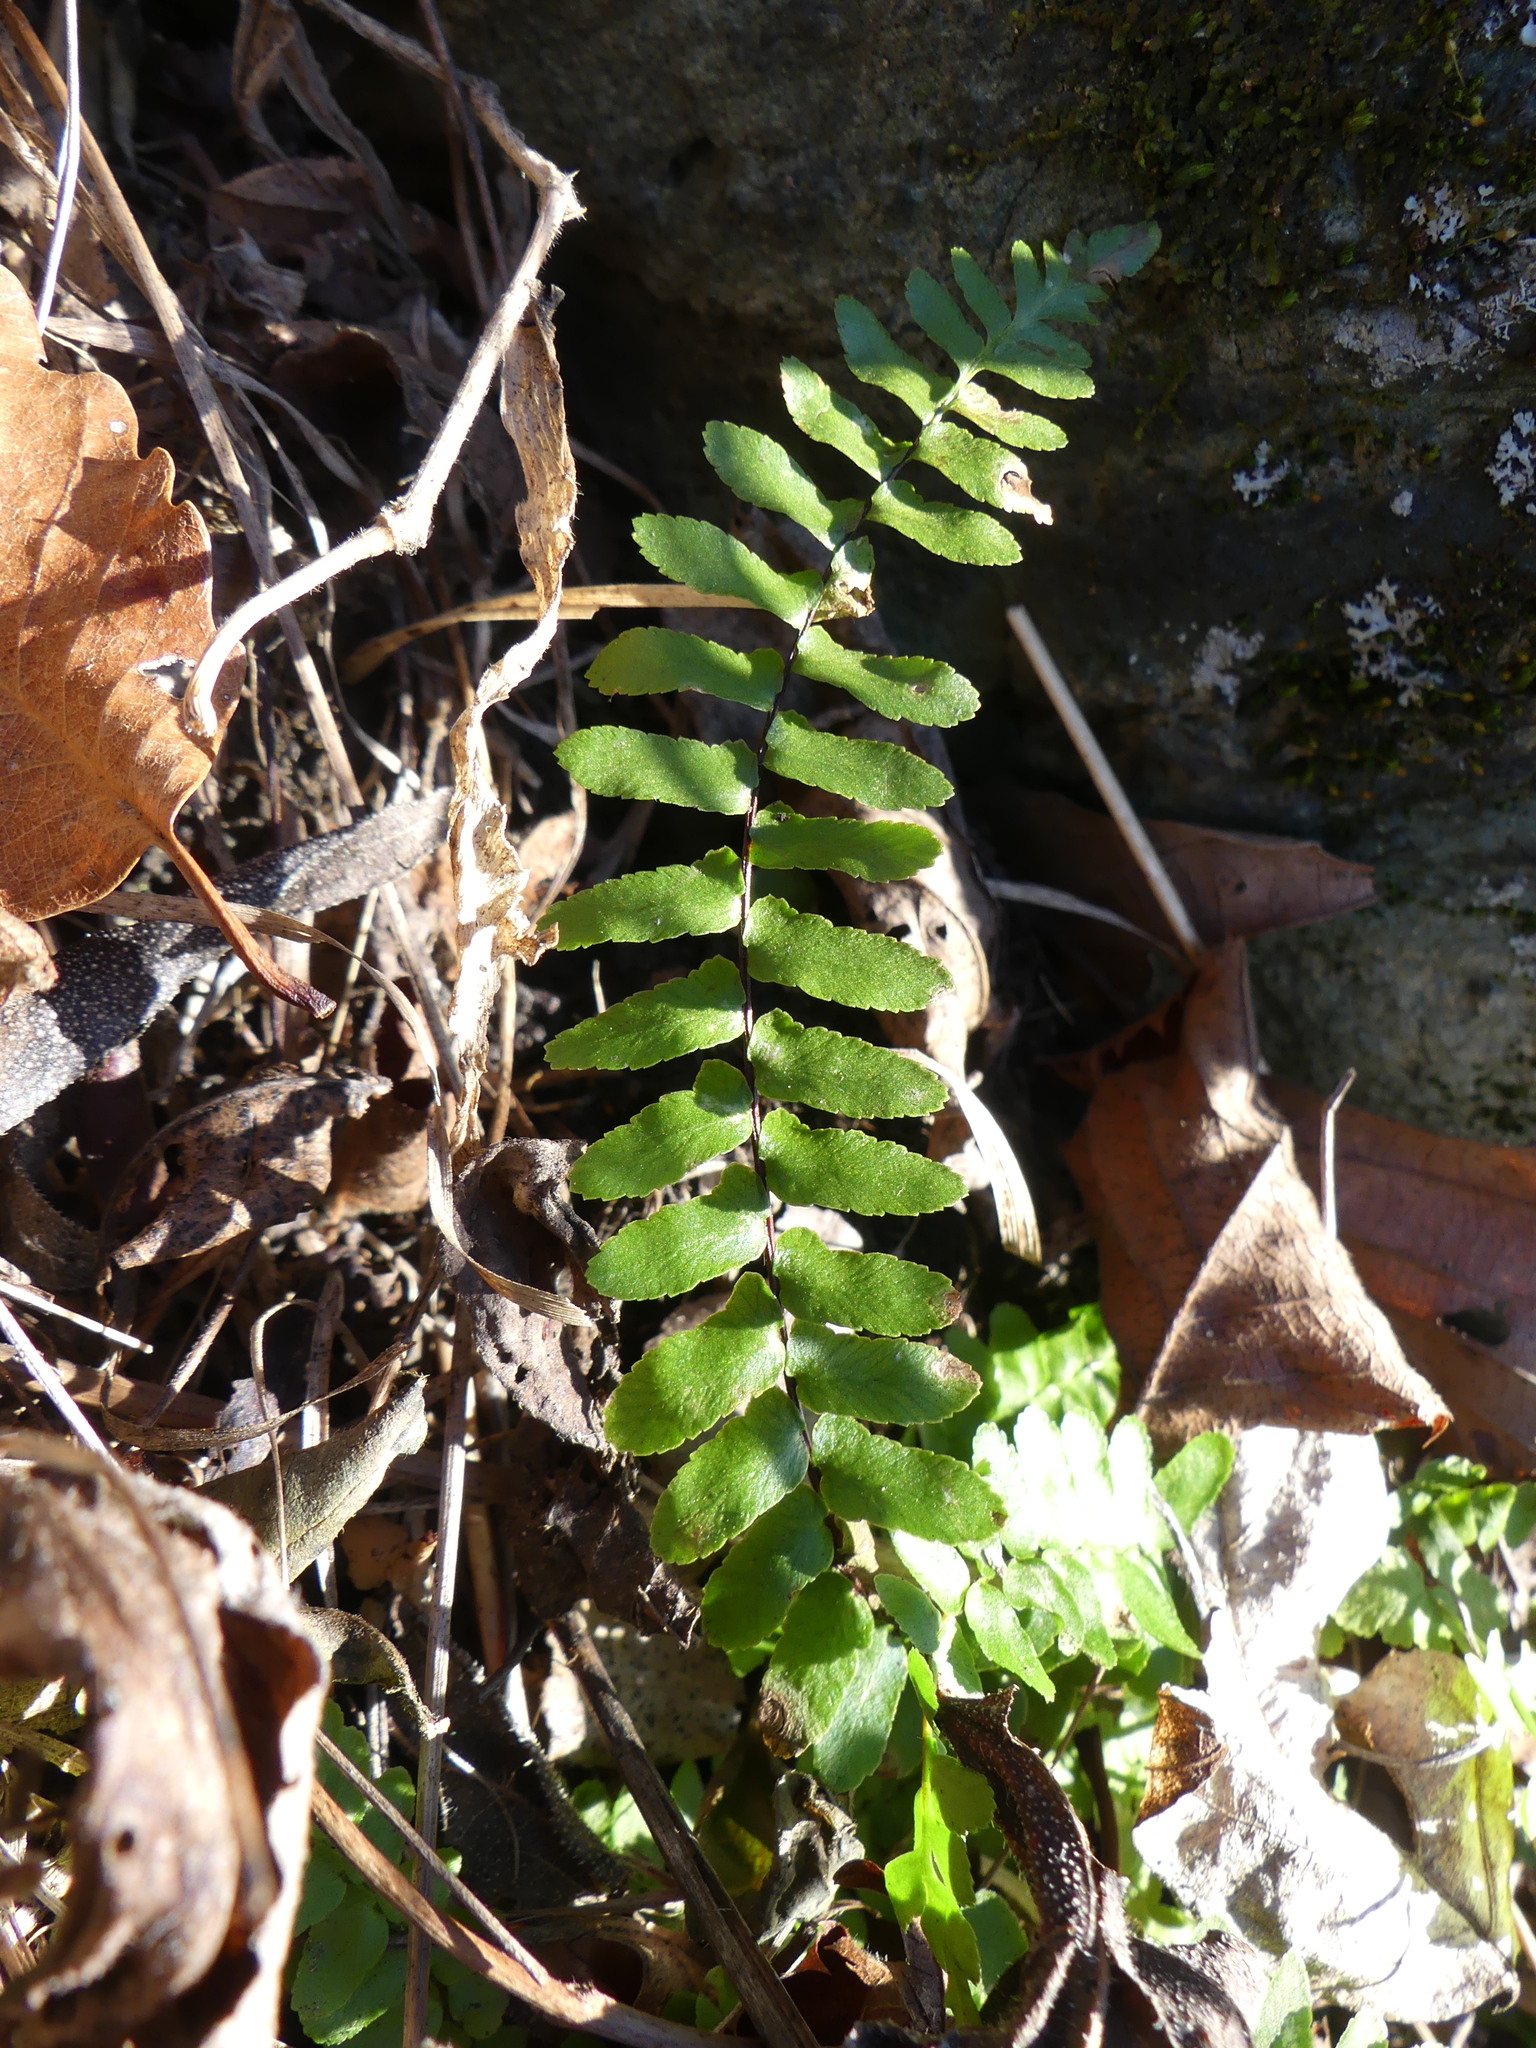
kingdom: Plantae
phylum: Tracheophyta
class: Polypodiopsida
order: Polypodiales
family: Aspleniaceae
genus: Asplenium
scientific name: Asplenium platyneuron
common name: Ebony spleenwort
